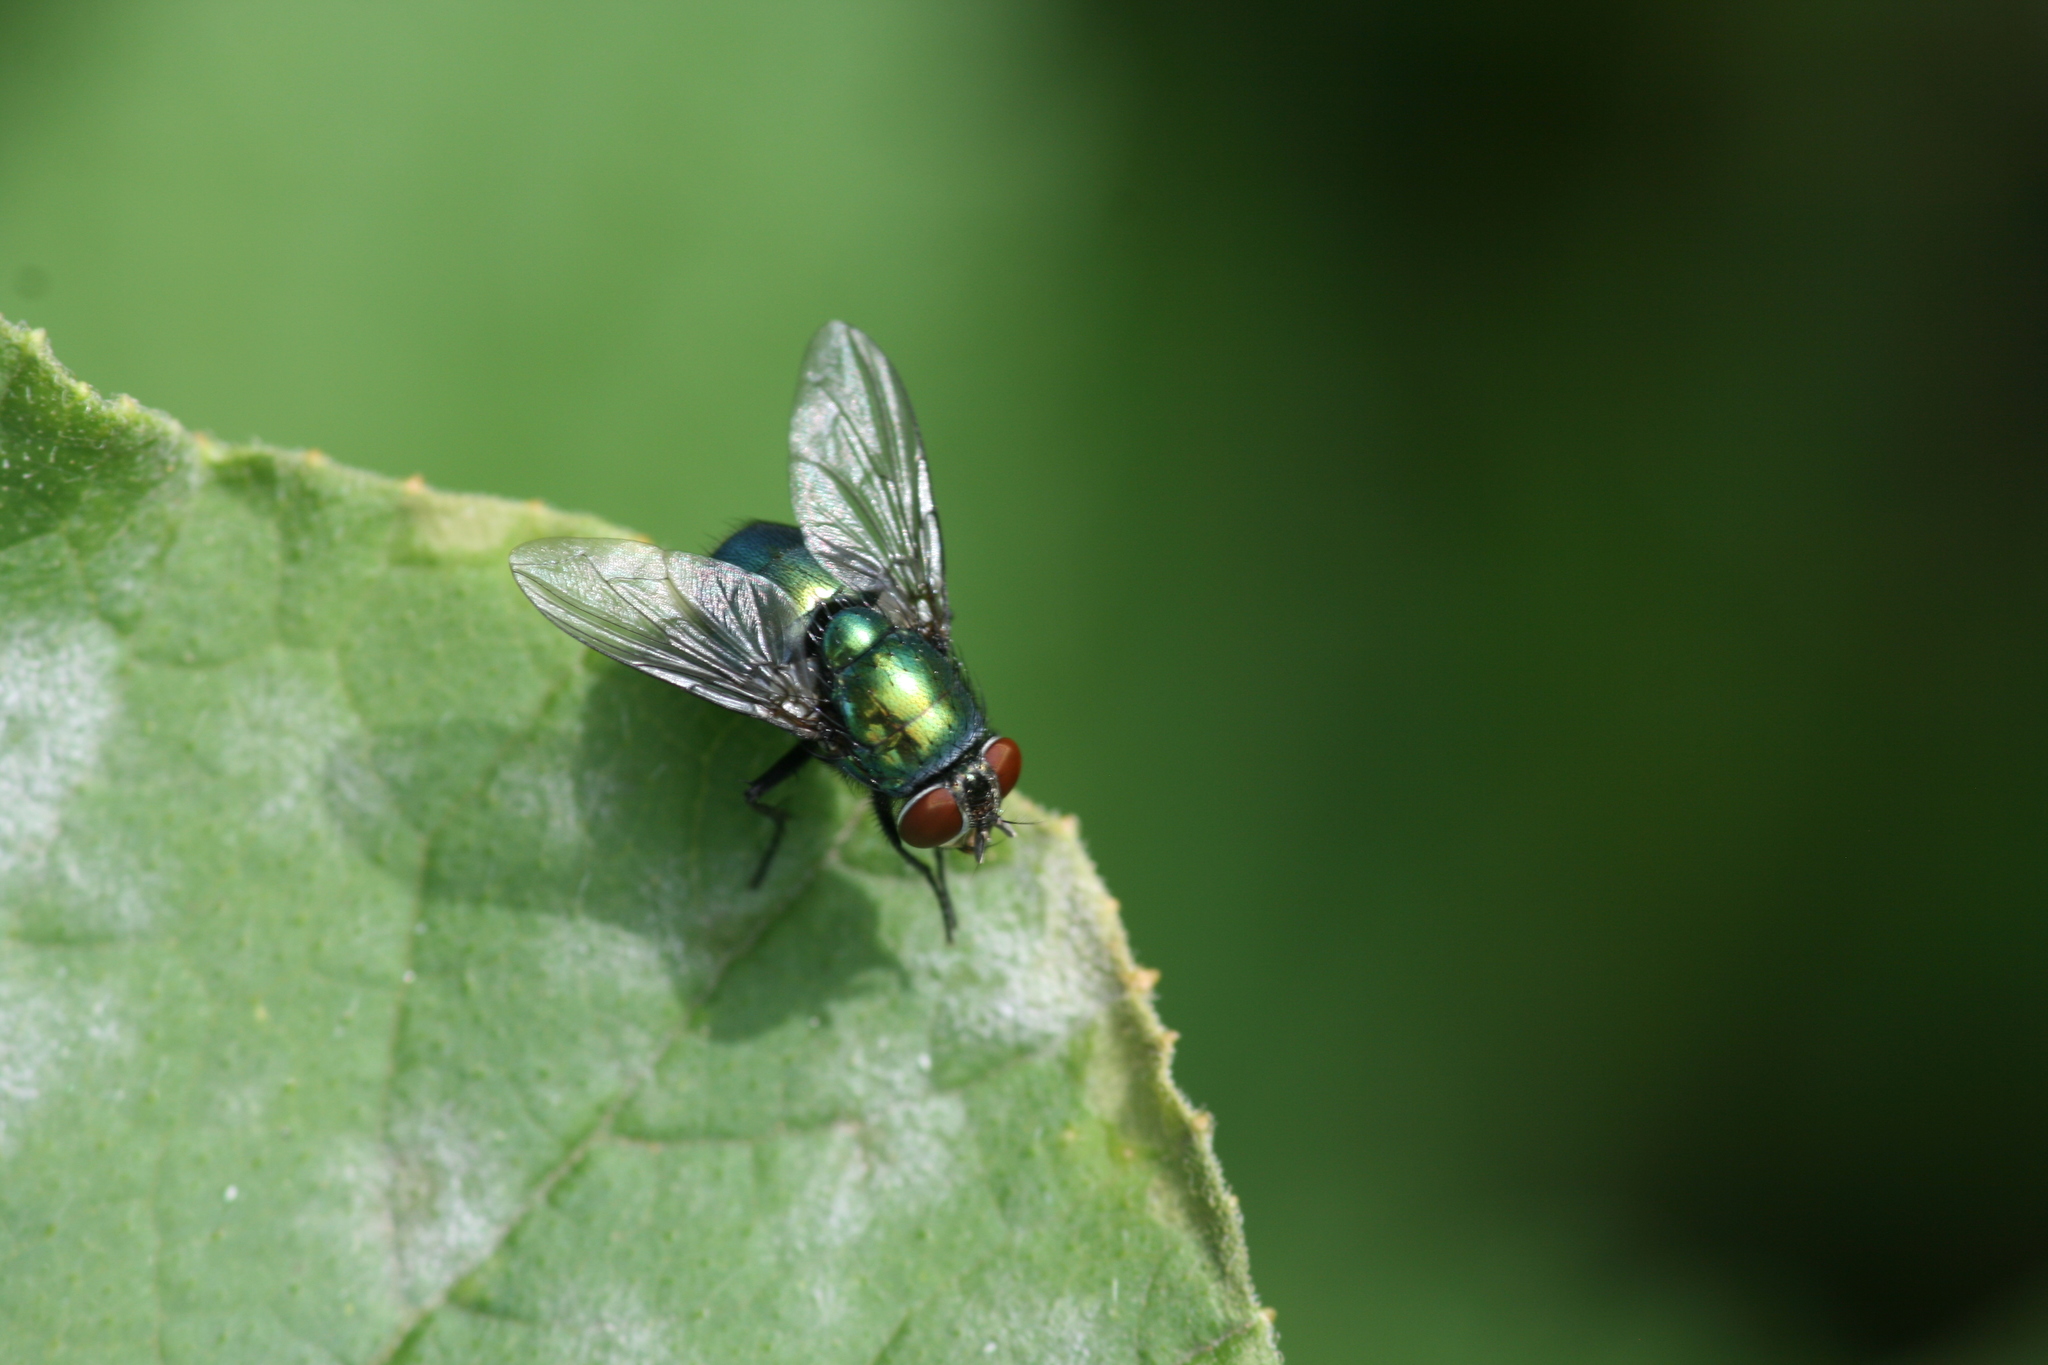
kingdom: Animalia
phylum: Arthropoda
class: Insecta
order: Diptera
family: Calliphoridae
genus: Lucilia
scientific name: Lucilia caesar
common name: Blow fly
